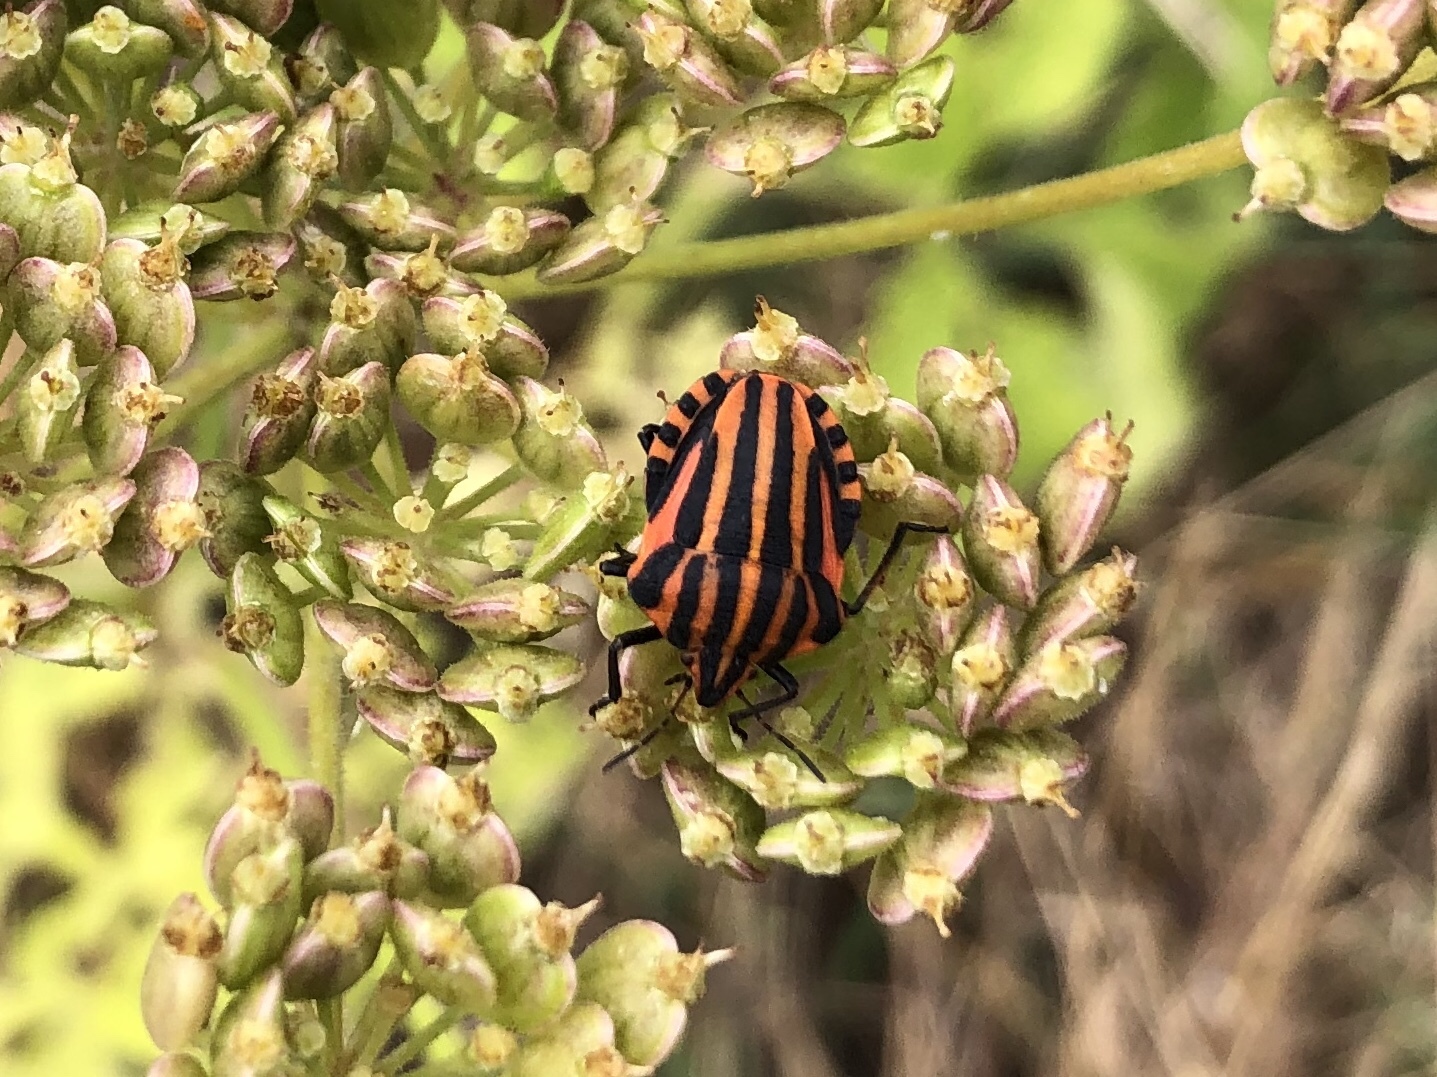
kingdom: Animalia
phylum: Arthropoda
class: Insecta
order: Hemiptera
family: Pentatomidae
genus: Graphosoma
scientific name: Graphosoma italicum
